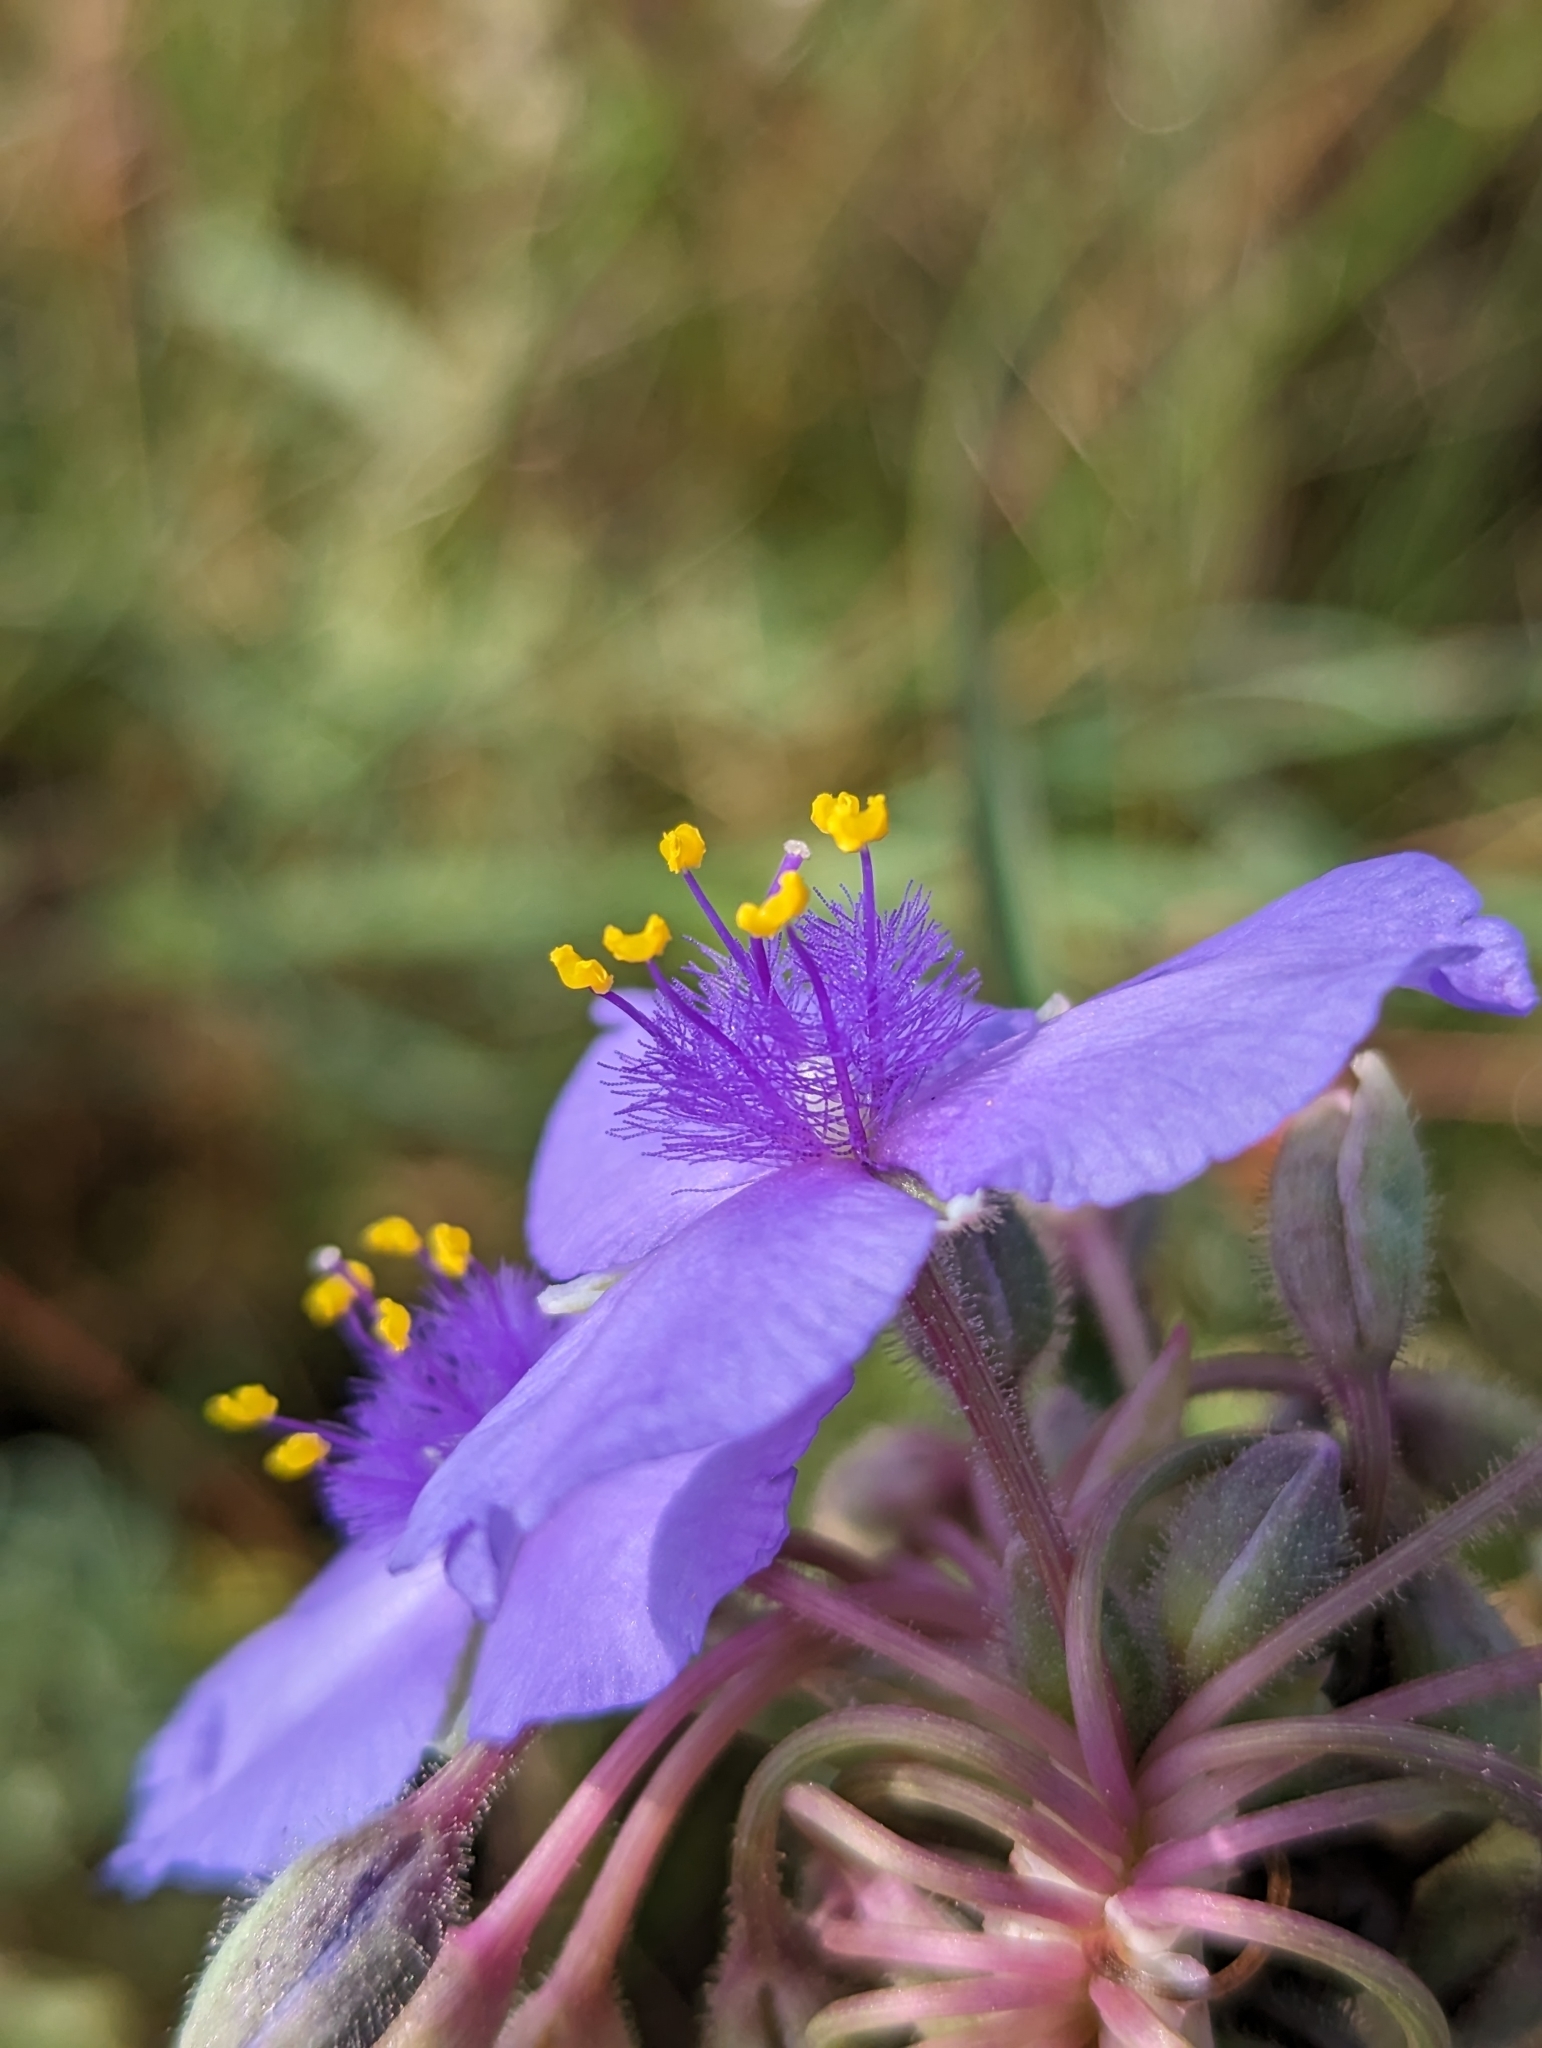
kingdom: Plantae
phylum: Tracheophyta
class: Liliopsida
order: Commelinales
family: Commelinaceae
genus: Tradescantia
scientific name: Tradescantia occidentalis
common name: Prairie spiderwort
